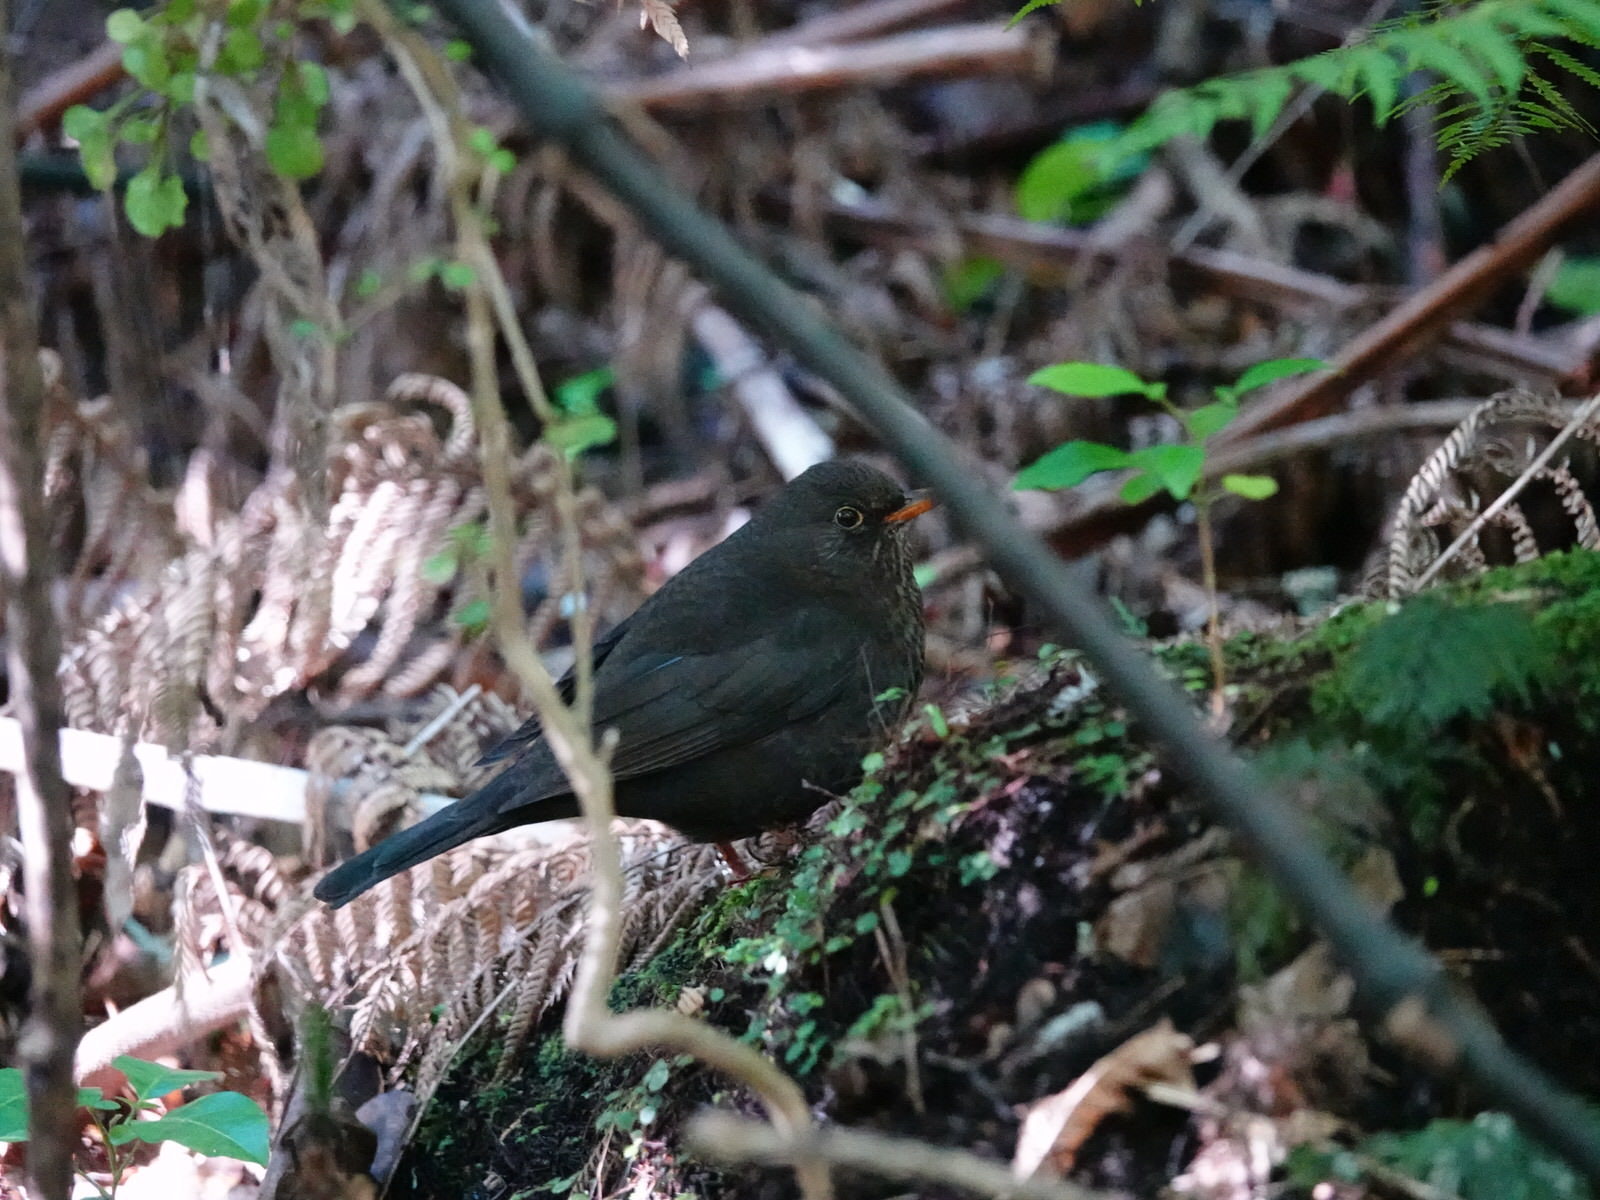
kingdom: Animalia
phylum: Chordata
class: Aves
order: Passeriformes
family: Turdidae
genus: Turdus
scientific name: Turdus merula
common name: Common blackbird
